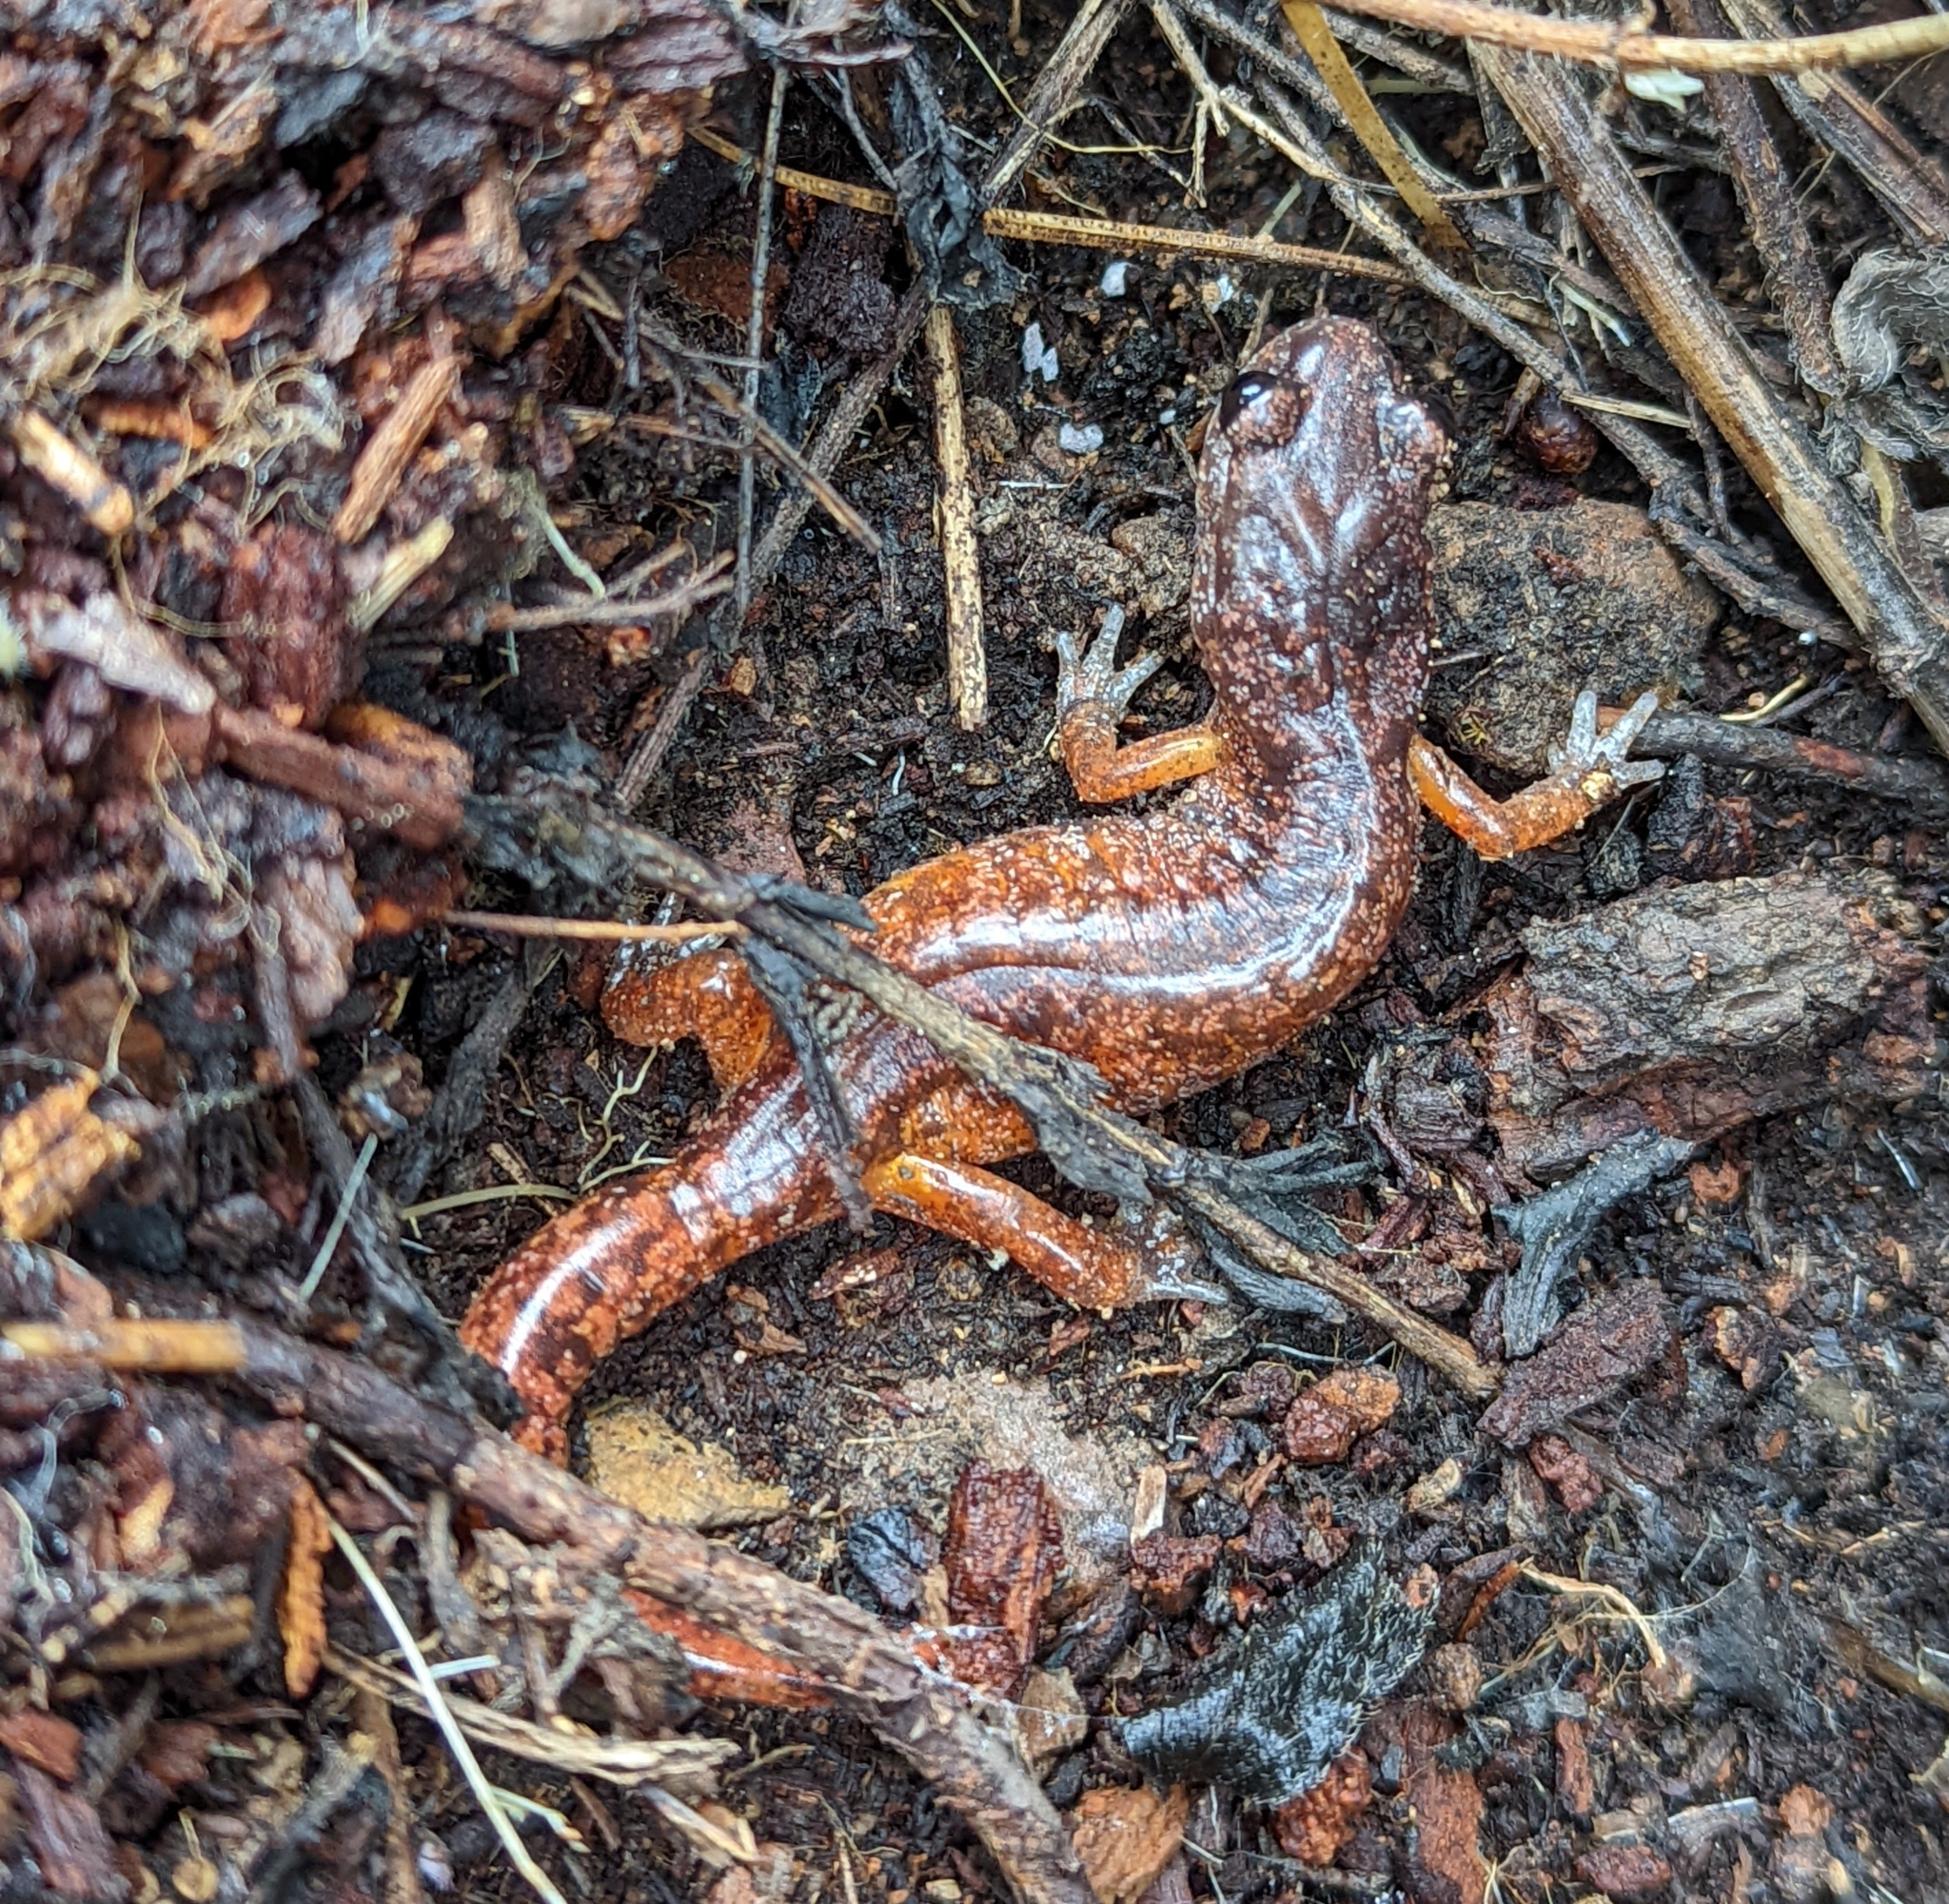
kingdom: Animalia
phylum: Chordata
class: Amphibia
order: Caudata
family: Plethodontidae
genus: Ensatina
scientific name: Ensatina eschscholtzii
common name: Ensatina
